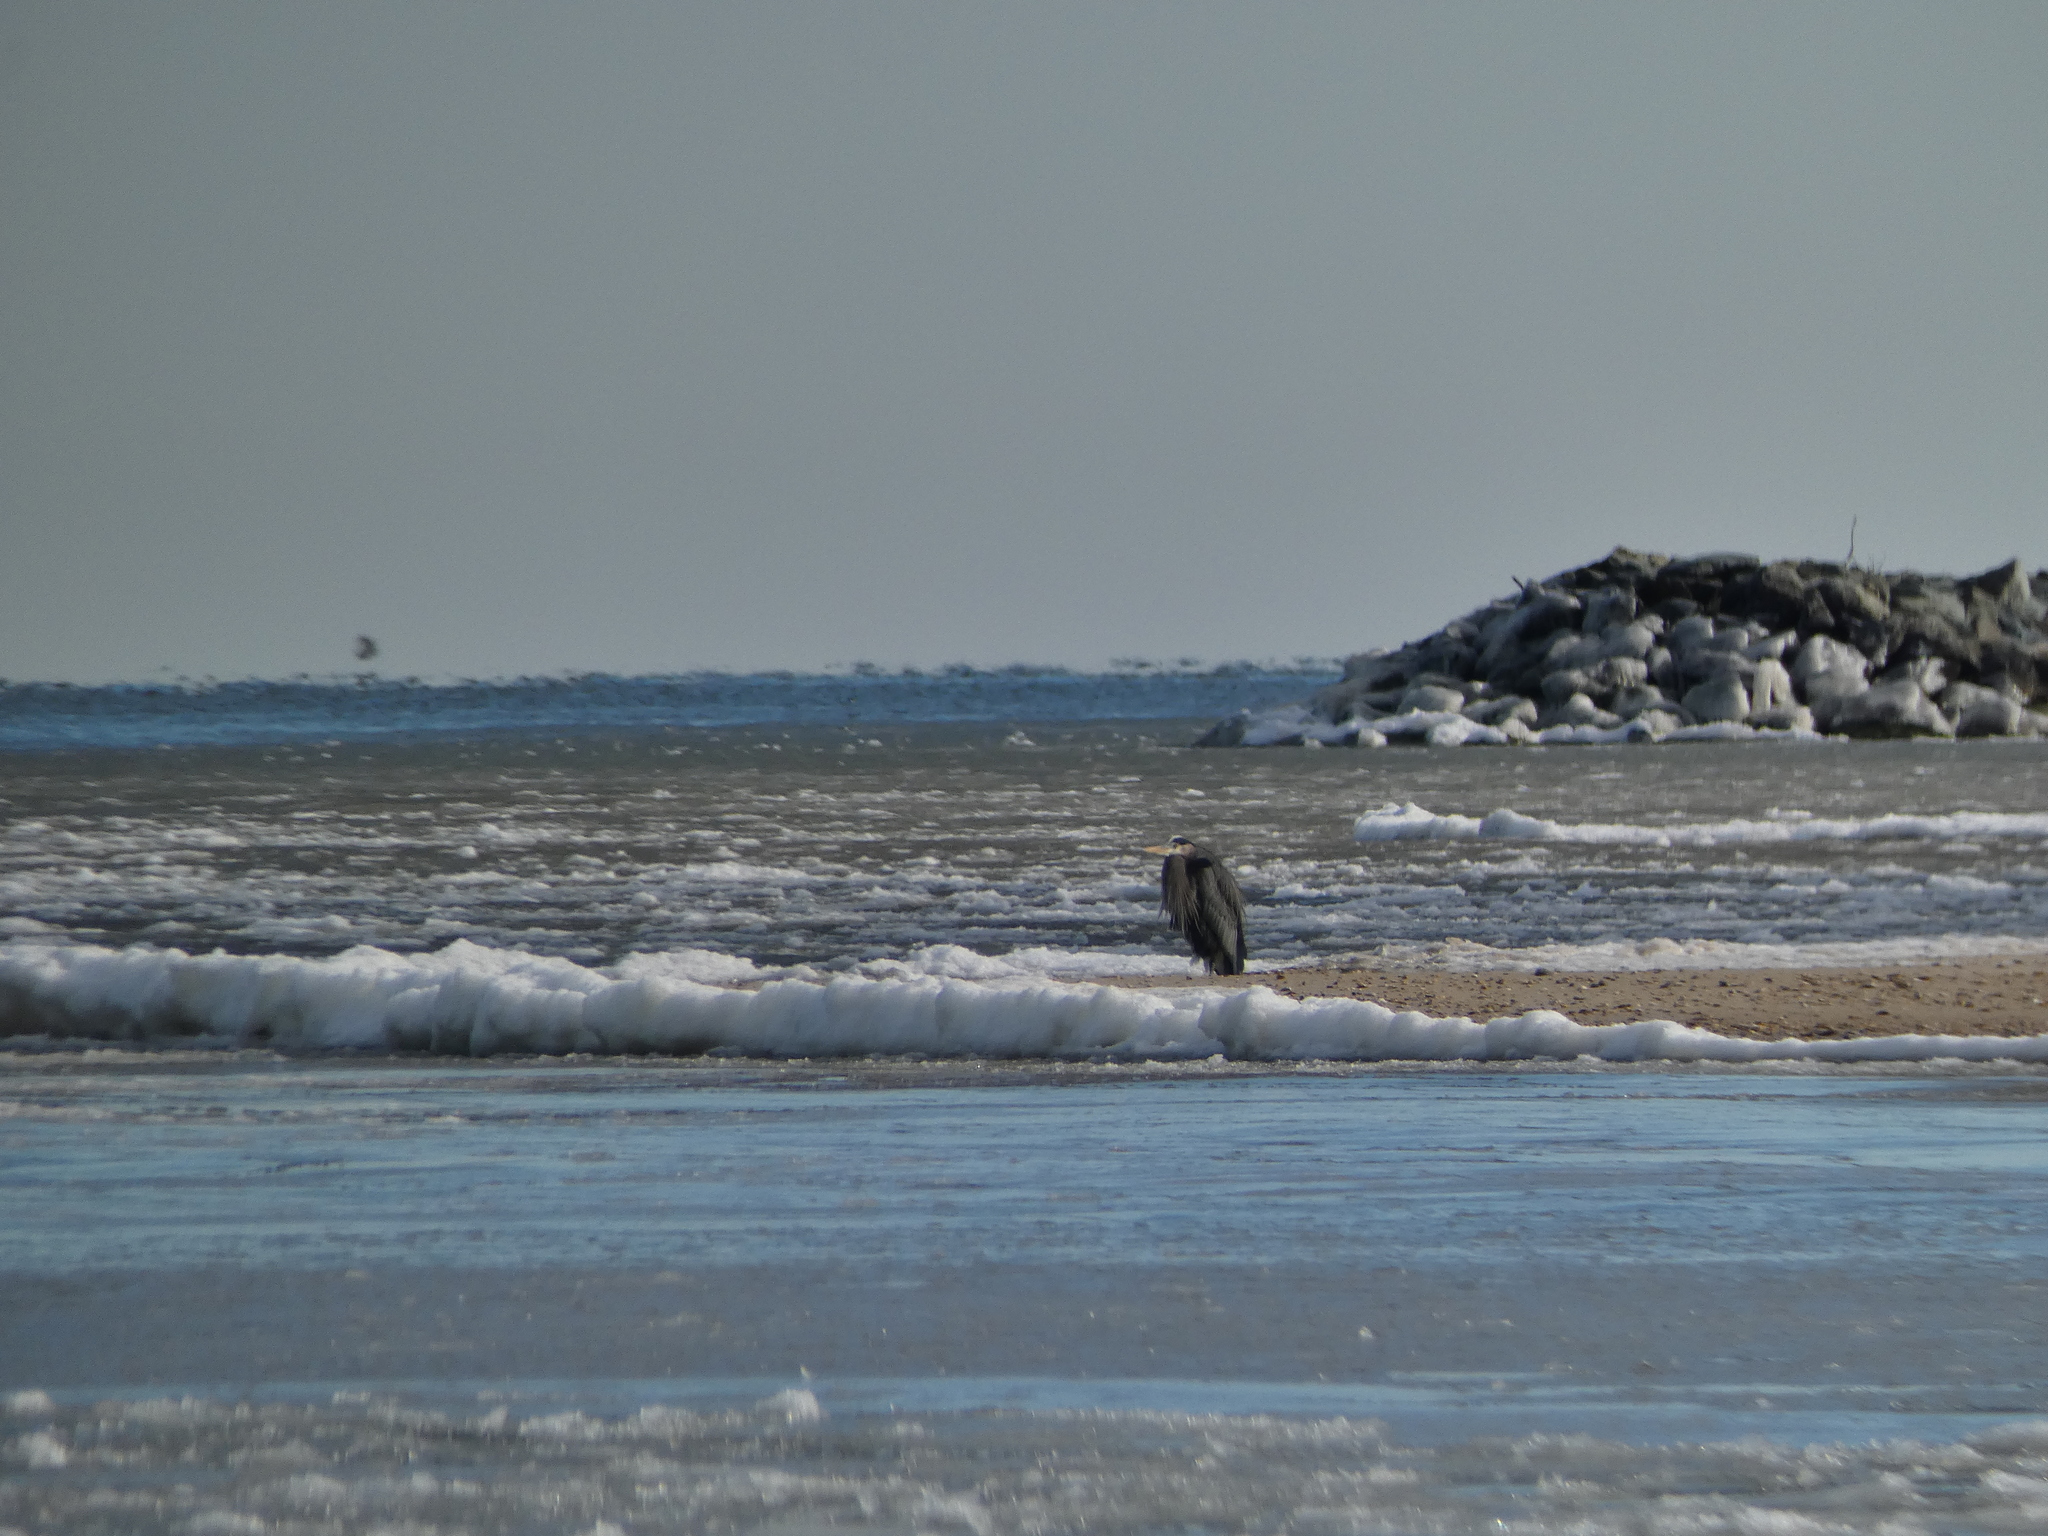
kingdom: Animalia
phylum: Chordata
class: Aves
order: Pelecaniformes
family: Ardeidae
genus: Ardea
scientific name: Ardea herodias
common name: Great blue heron
